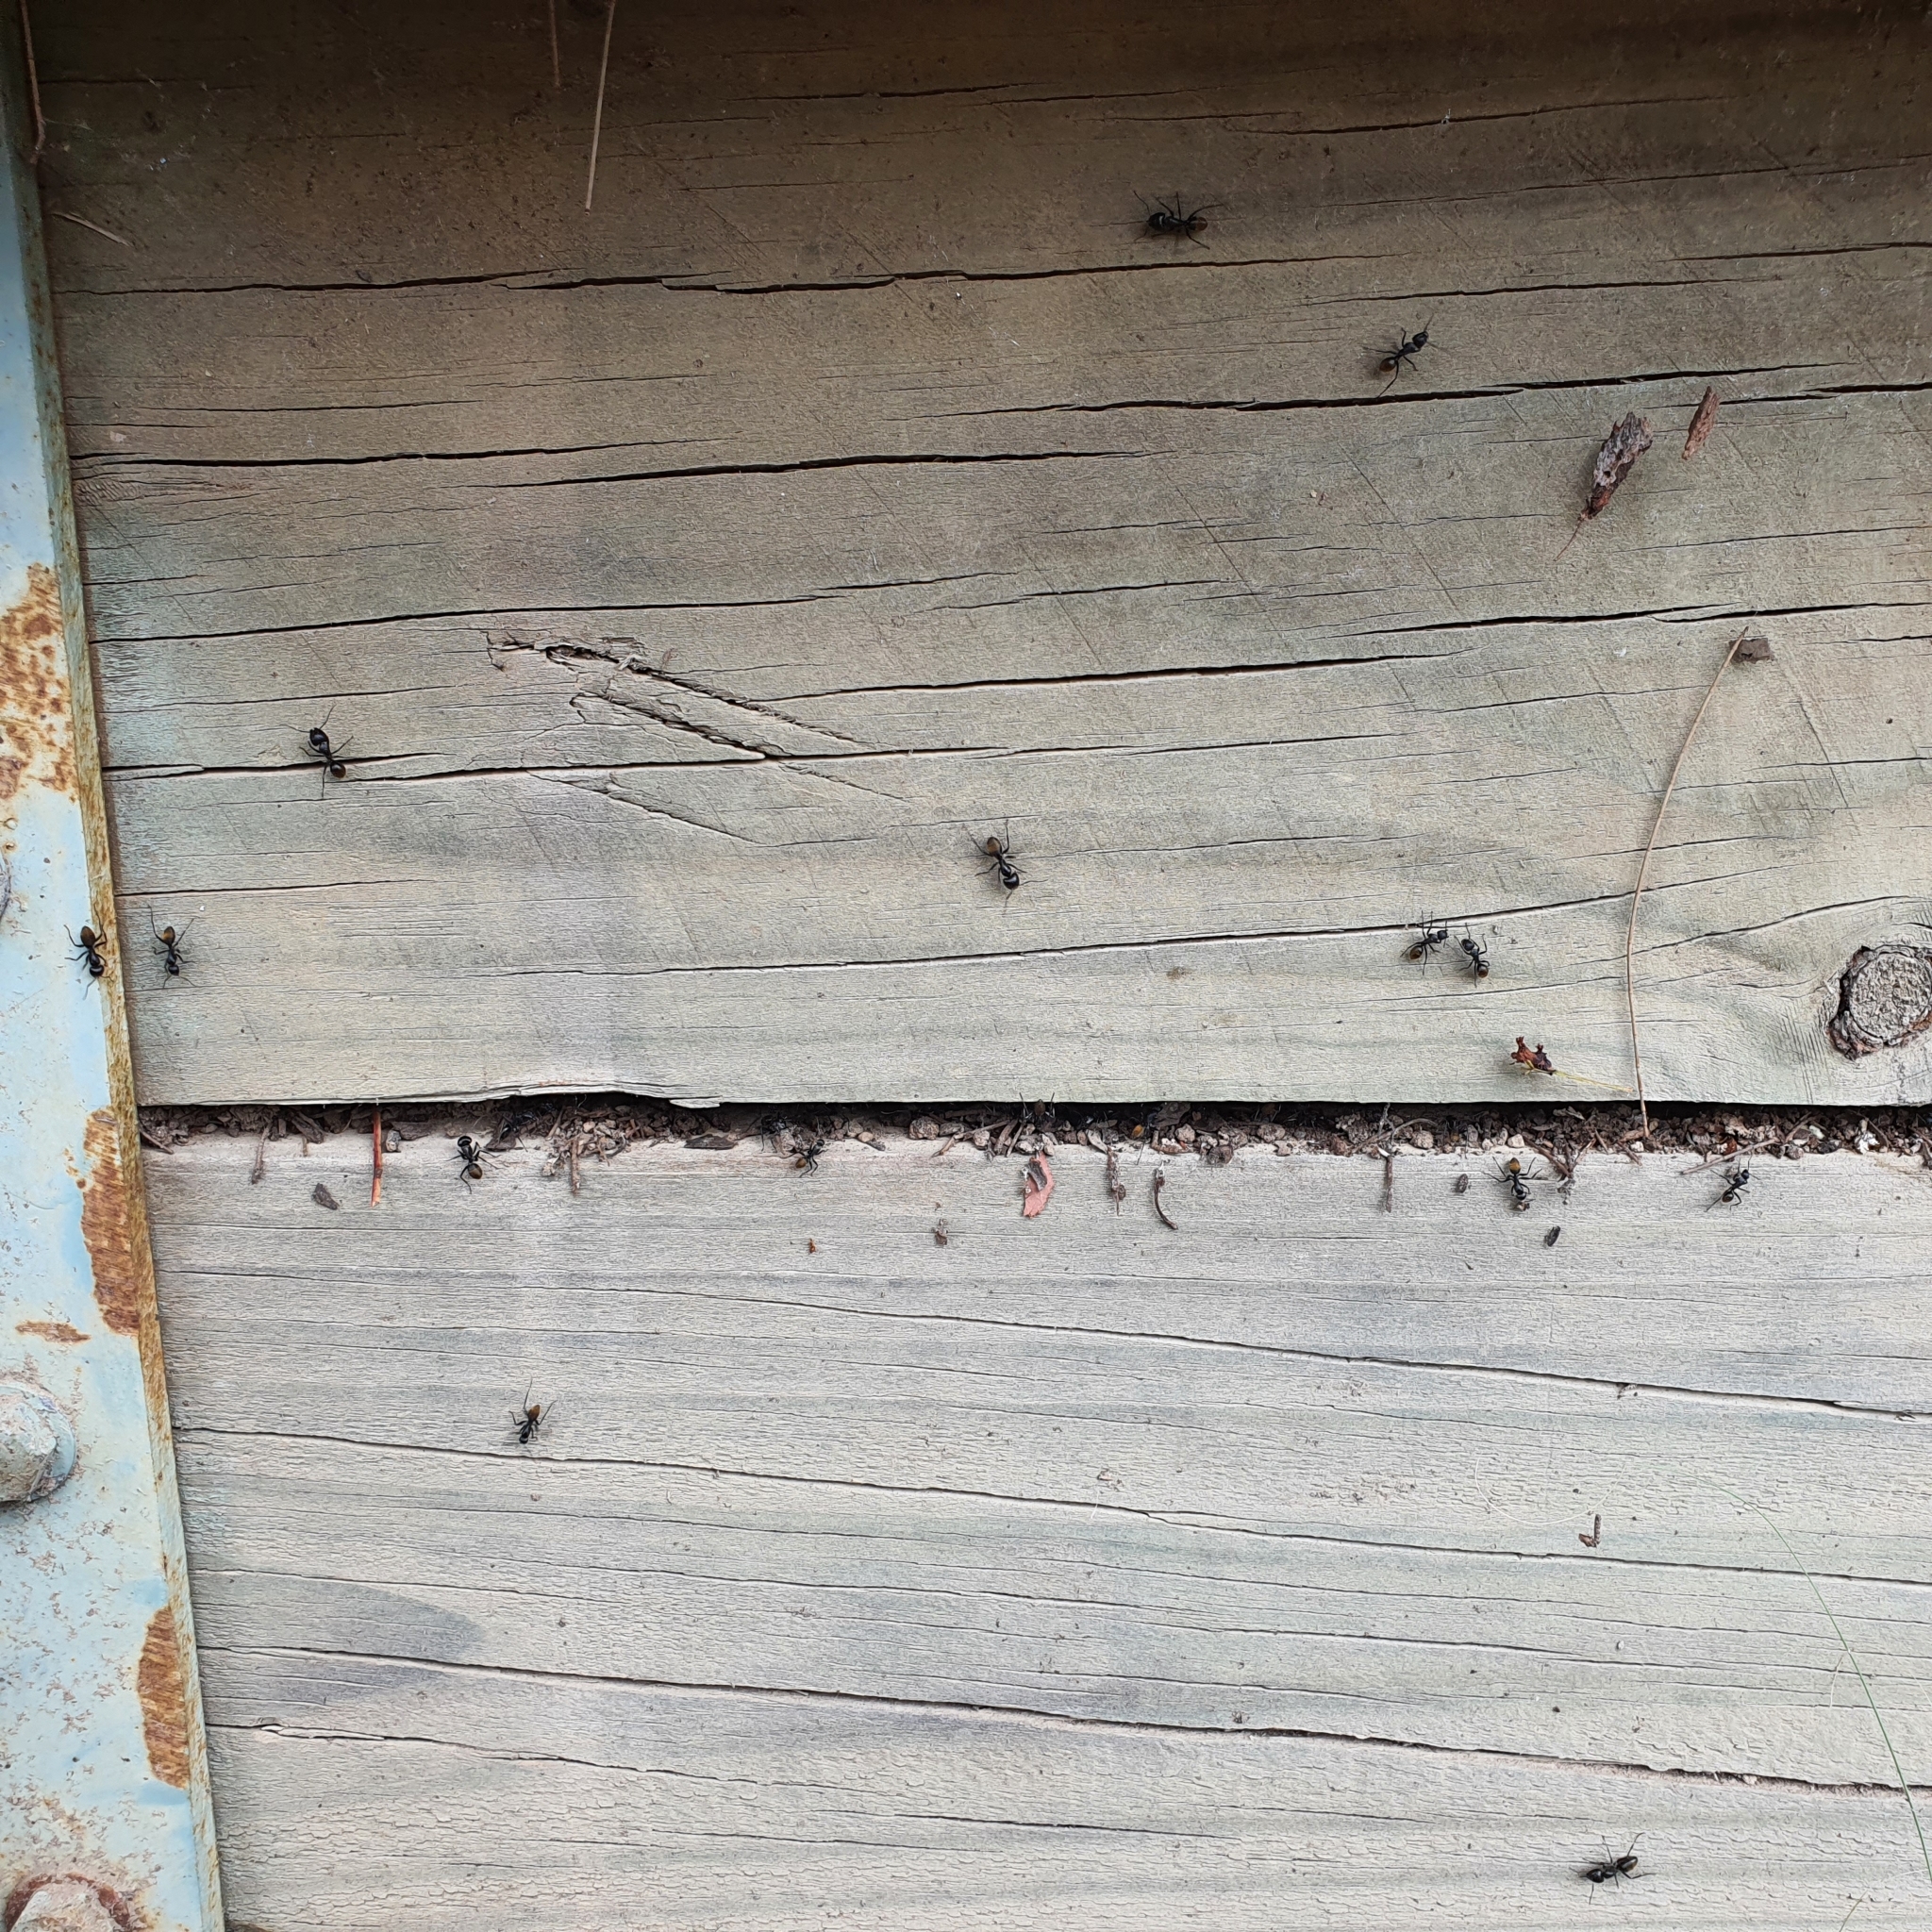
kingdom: Animalia
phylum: Arthropoda
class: Insecta
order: Hymenoptera
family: Formicidae
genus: Camponotus
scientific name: Camponotus aeneopilosus
